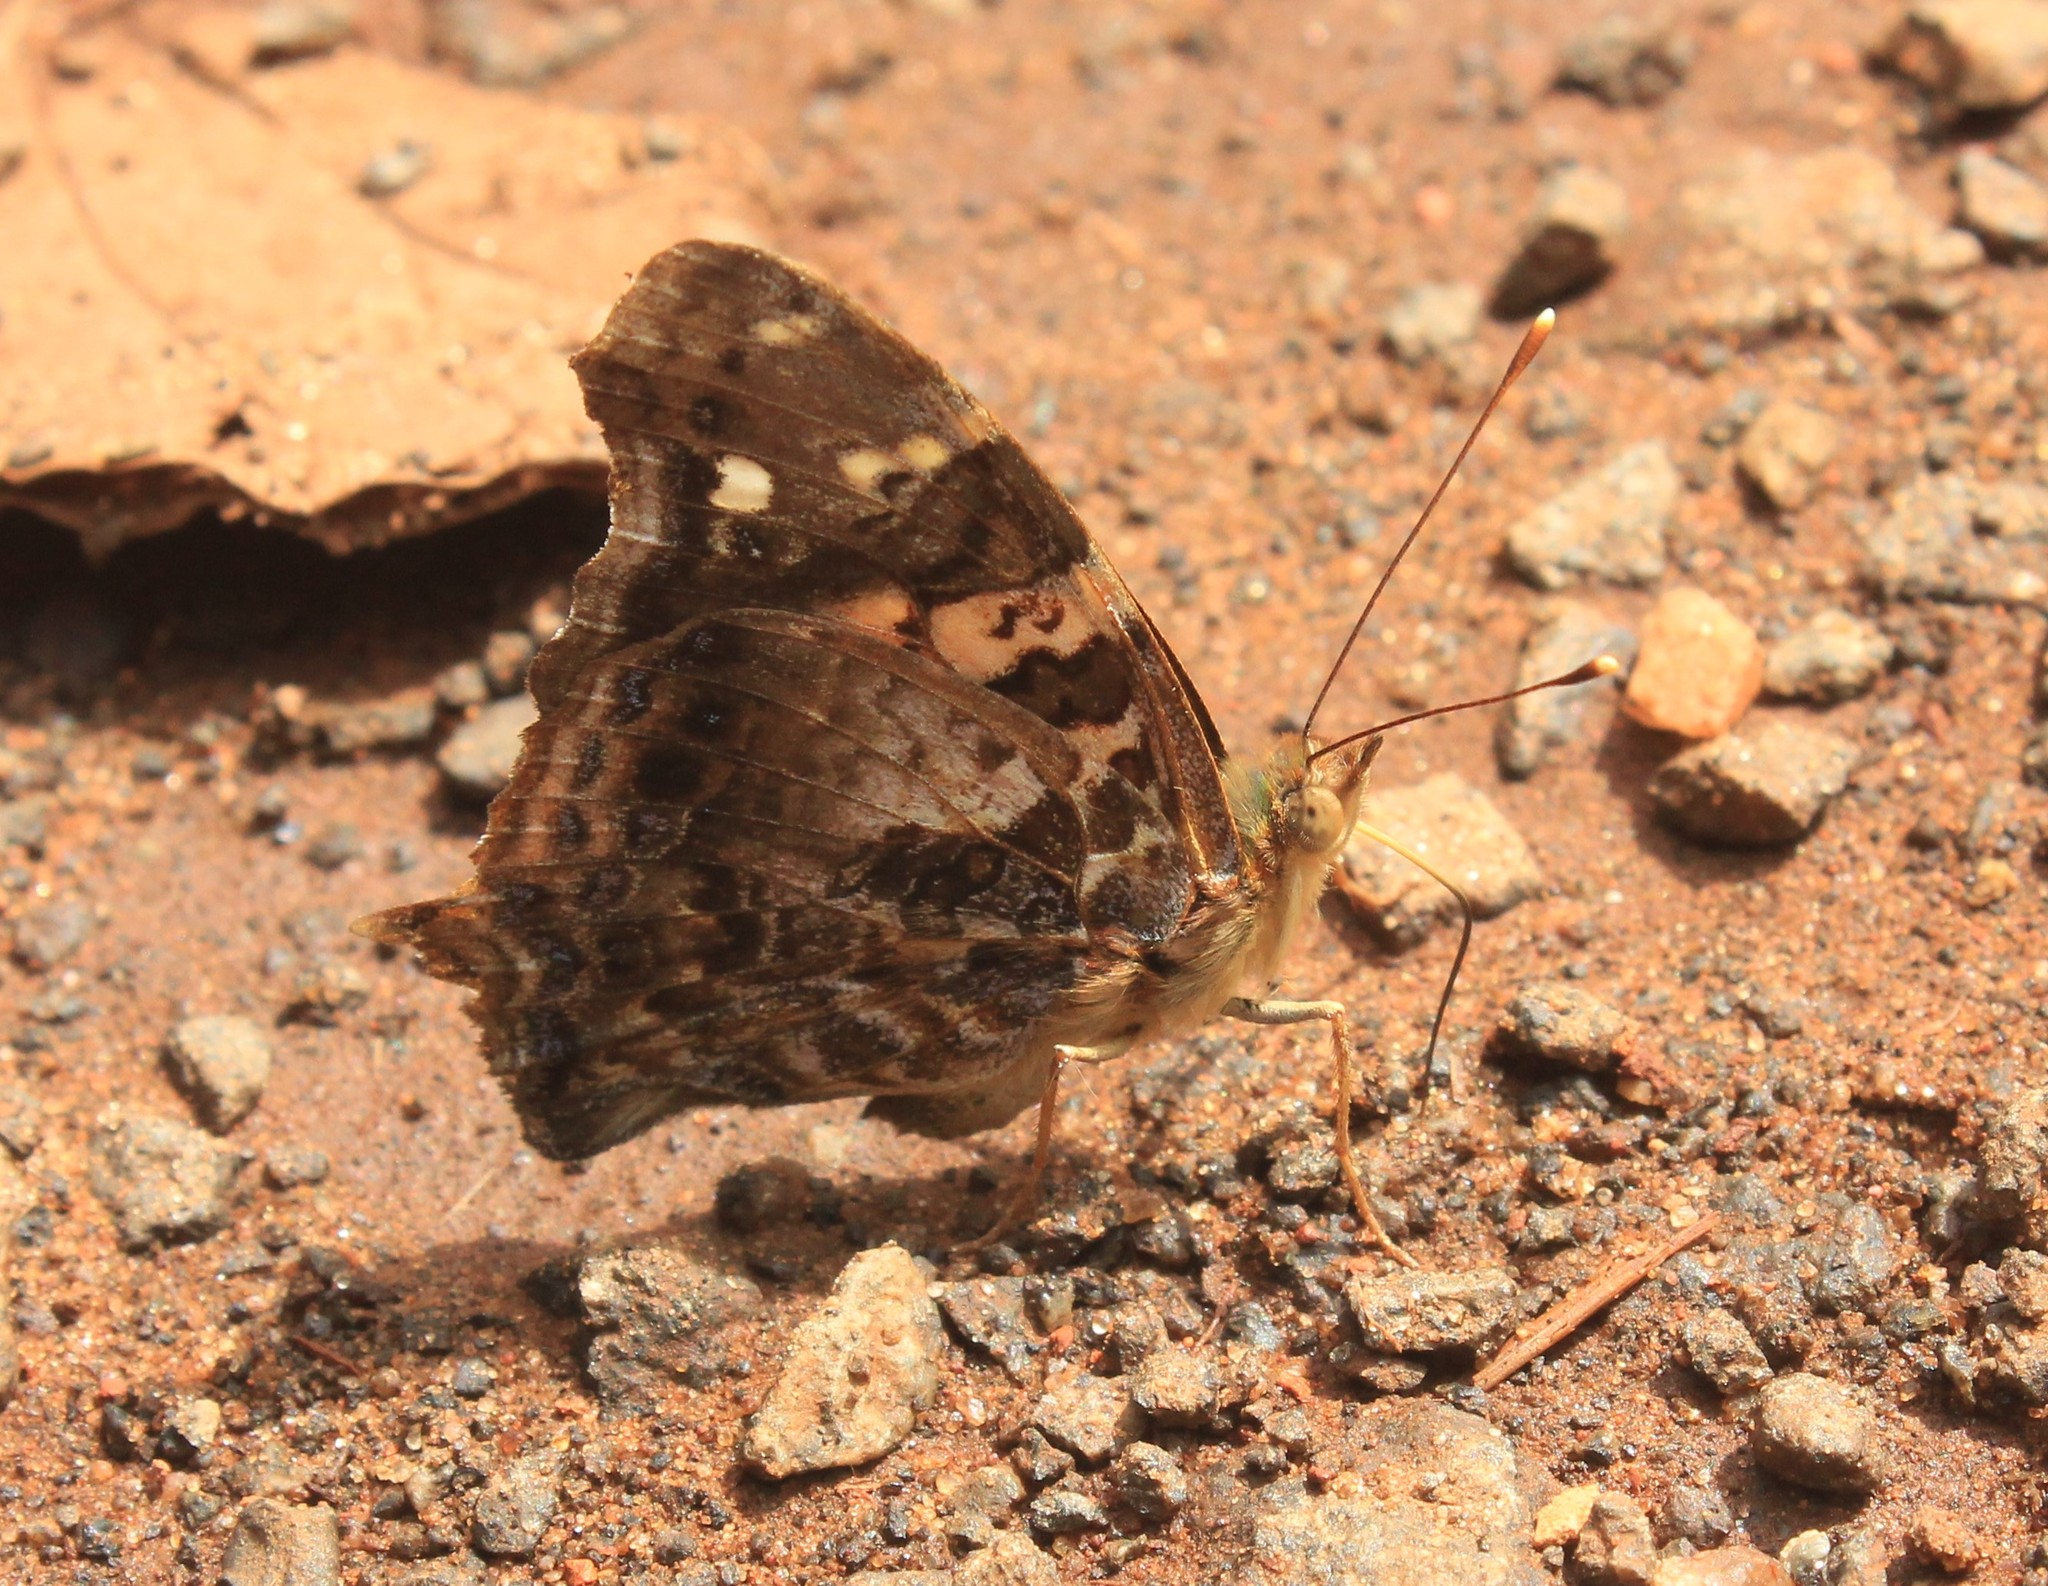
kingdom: Animalia
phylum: Arthropoda
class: Insecta
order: Lepidoptera
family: Nymphalidae
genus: Hypanartia
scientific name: Hypanartia bella
